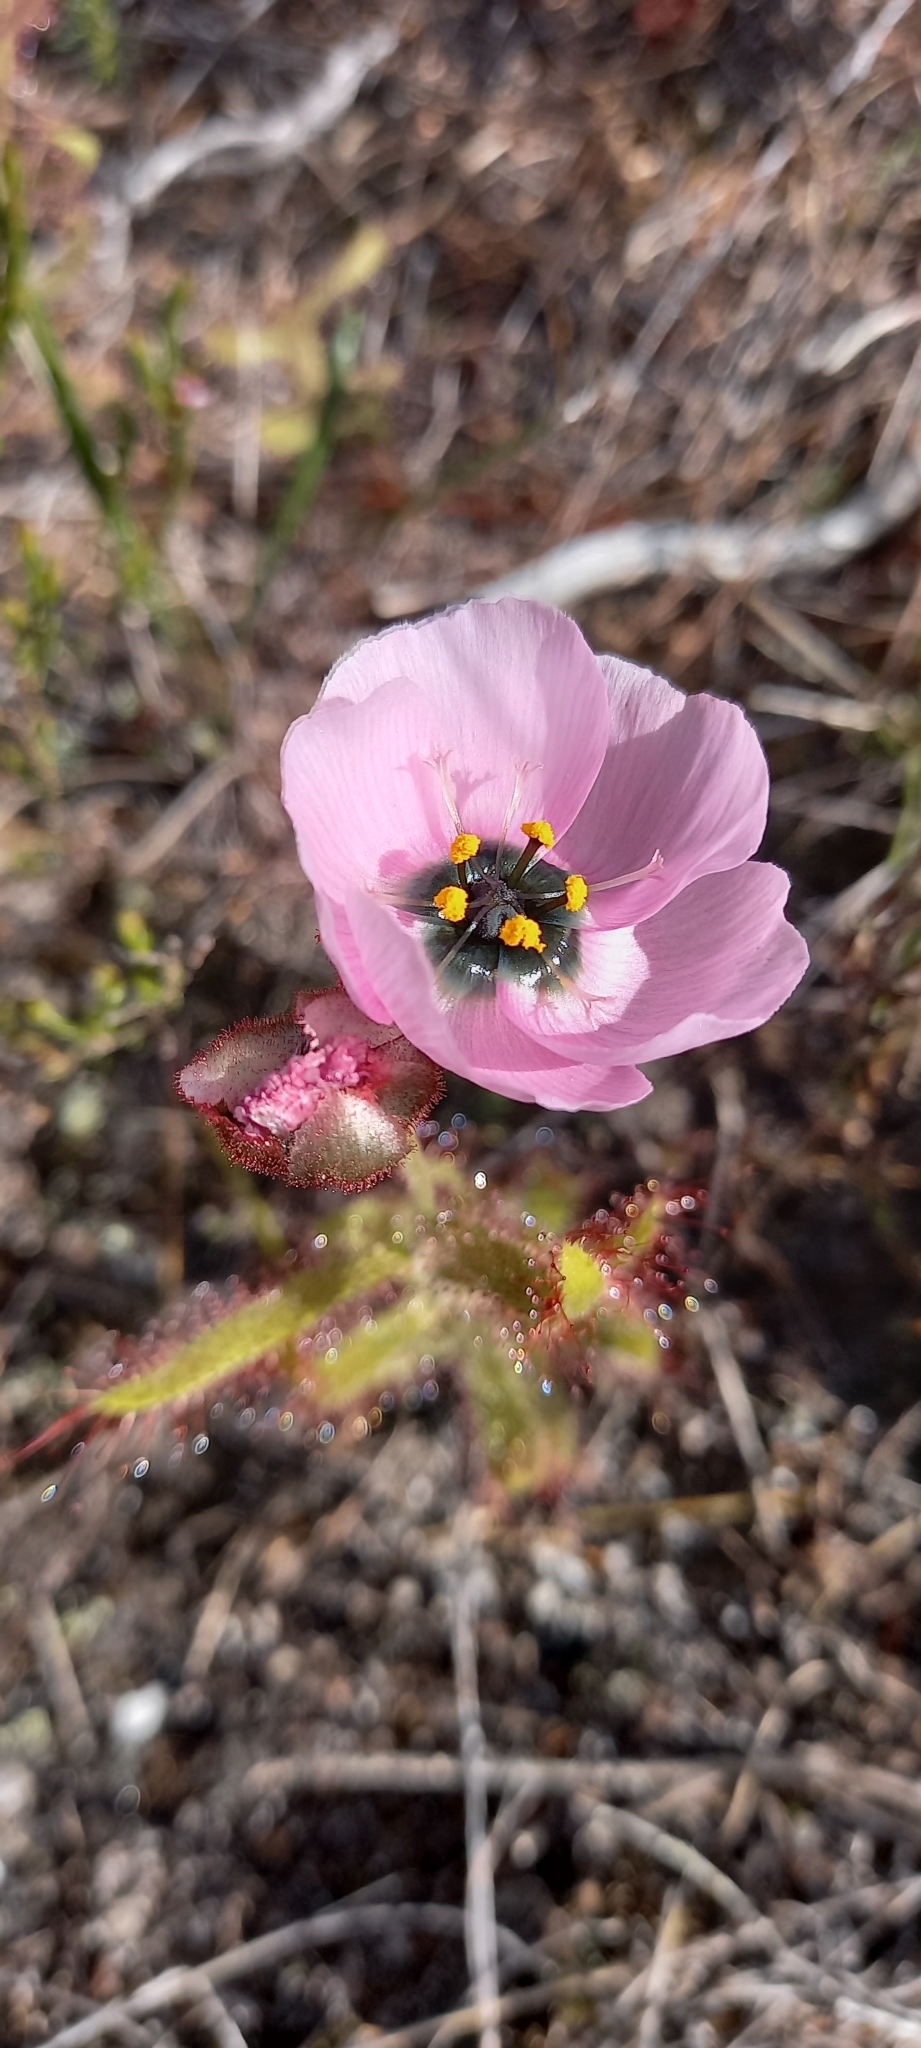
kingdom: Plantae
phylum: Tracheophyta
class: Magnoliopsida
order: Caryophyllales
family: Droseraceae
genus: Drosera
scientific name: Drosera cistiflora
